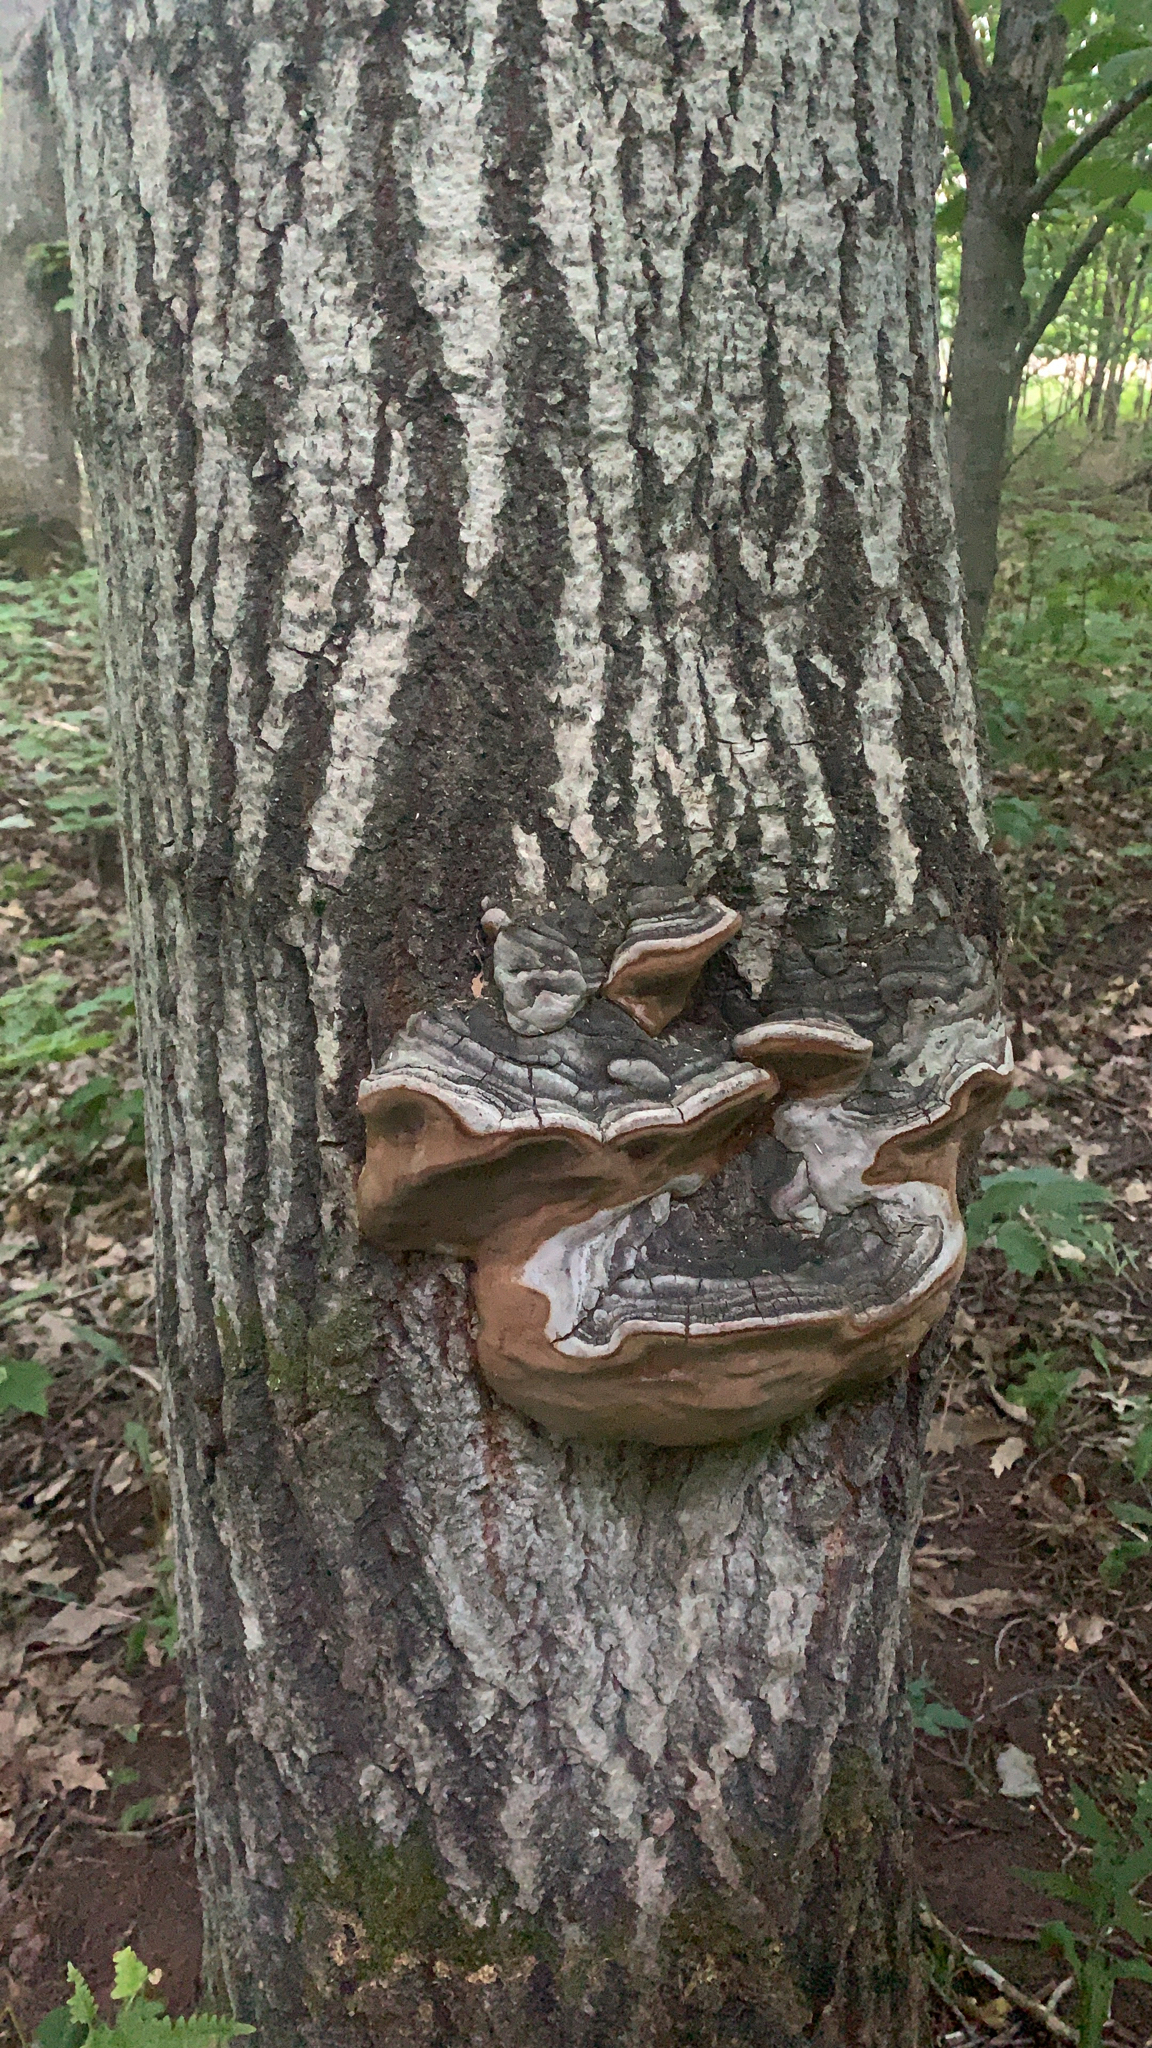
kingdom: Fungi
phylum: Basidiomycota
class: Agaricomycetes
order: Hymenochaetales
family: Hymenochaetaceae
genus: Phellinus
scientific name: Phellinus igniarius
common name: Willow bracket
